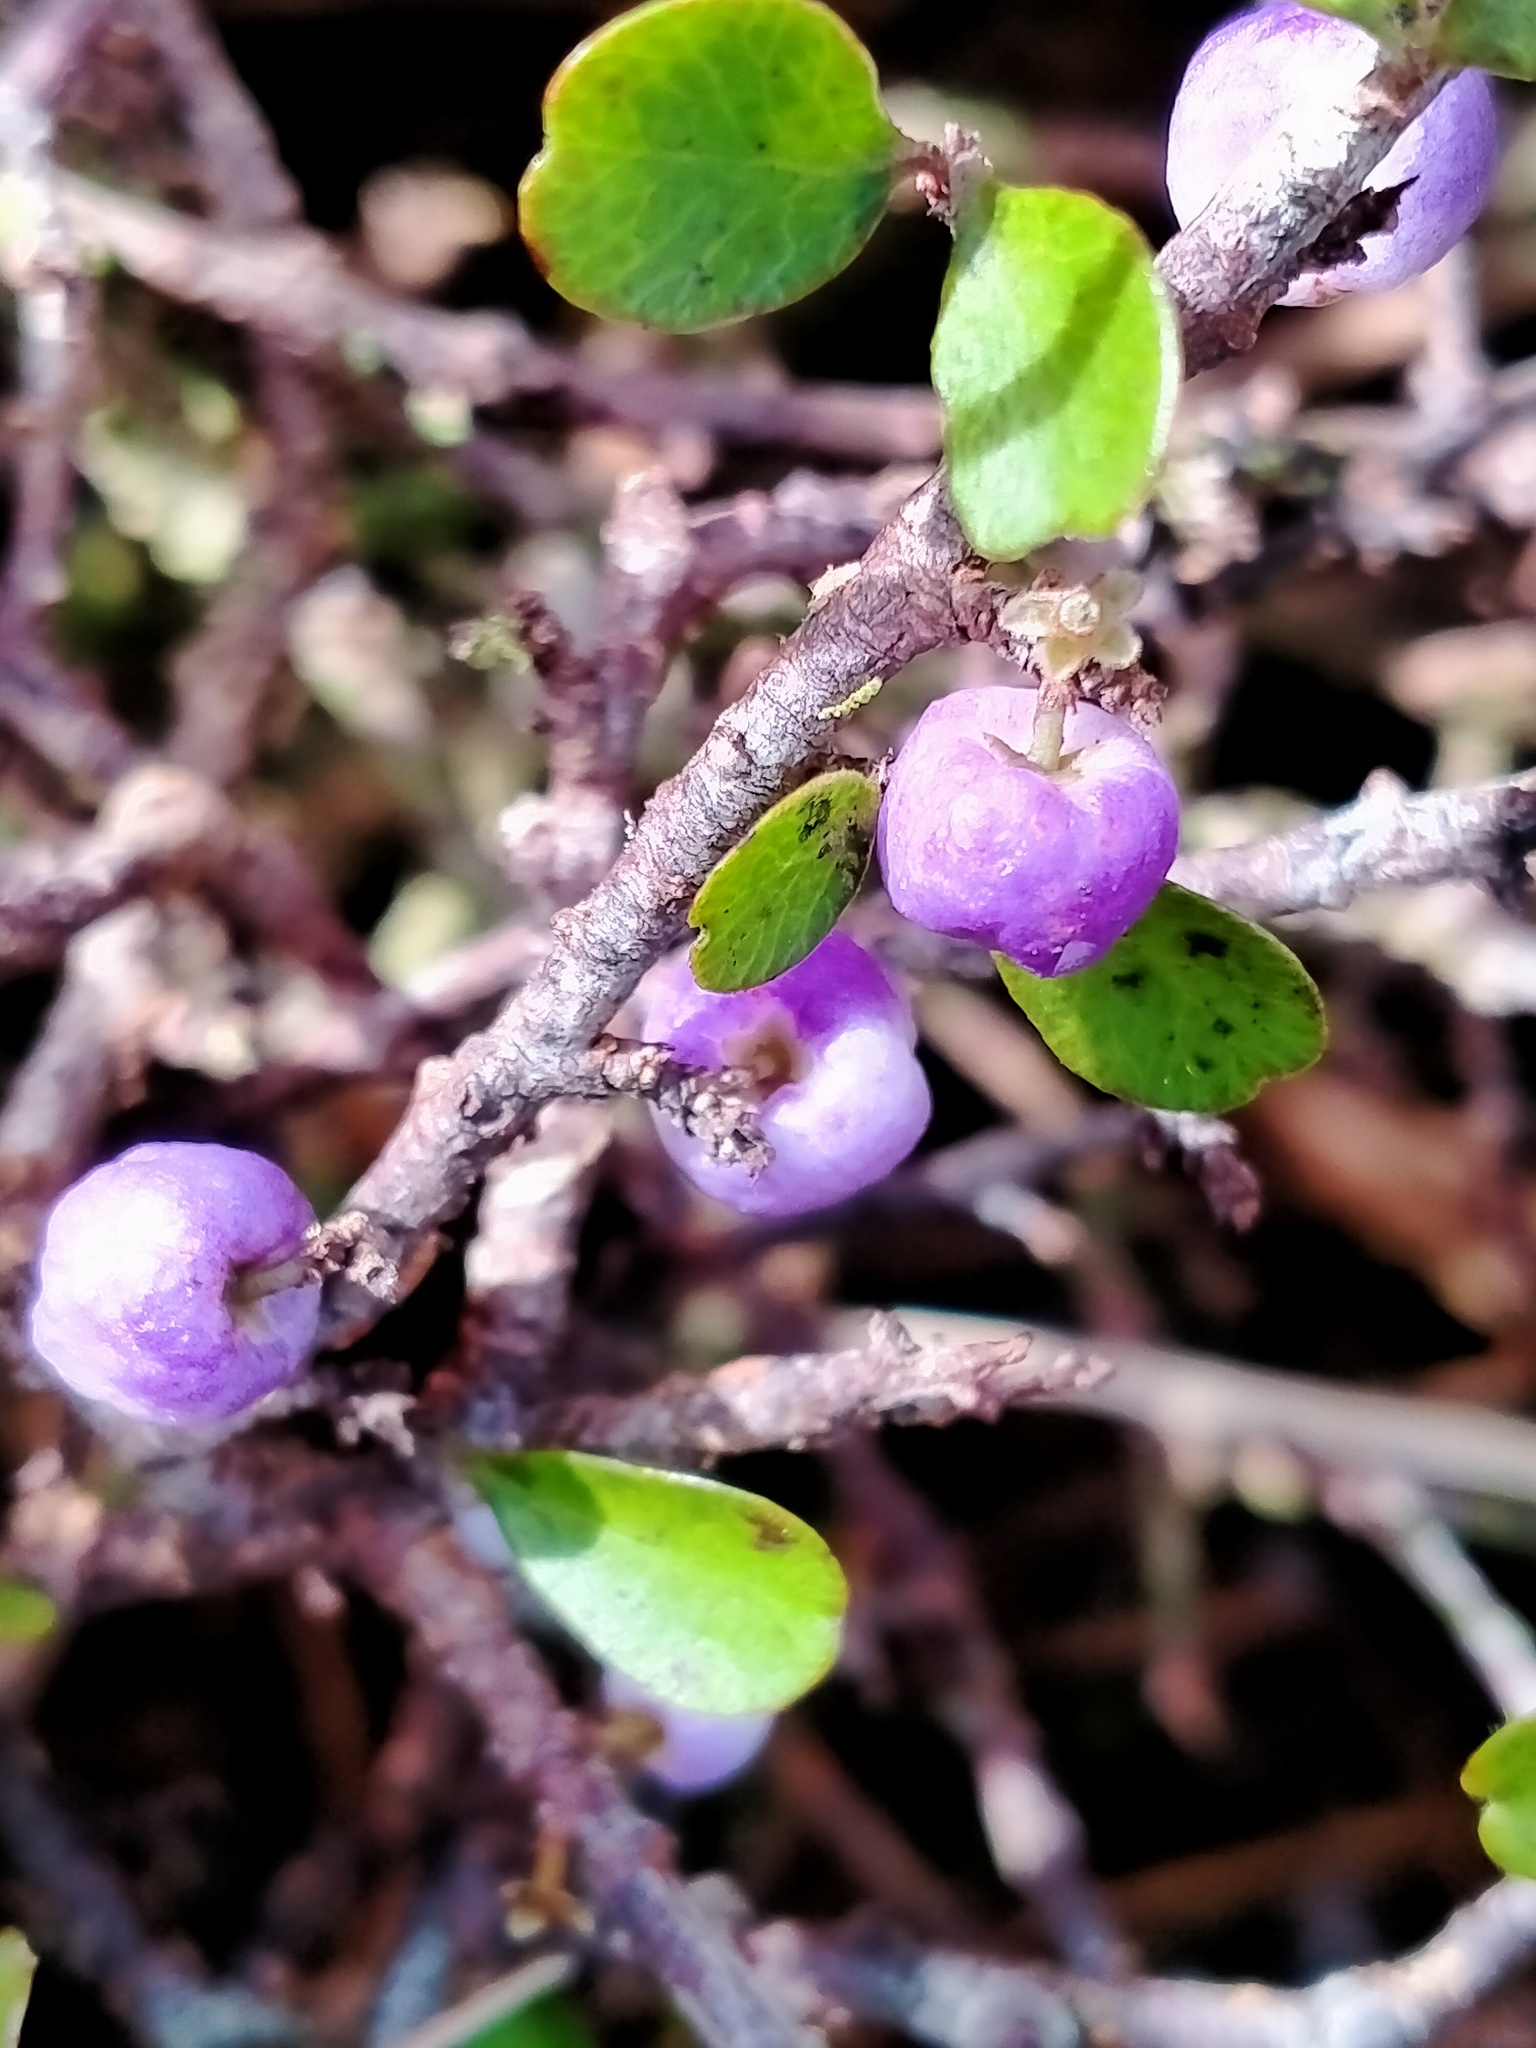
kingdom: Plantae
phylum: Tracheophyta
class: Magnoliopsida
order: Ericales
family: Primulaceae
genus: Myrsine
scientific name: Myrsine divaricata
